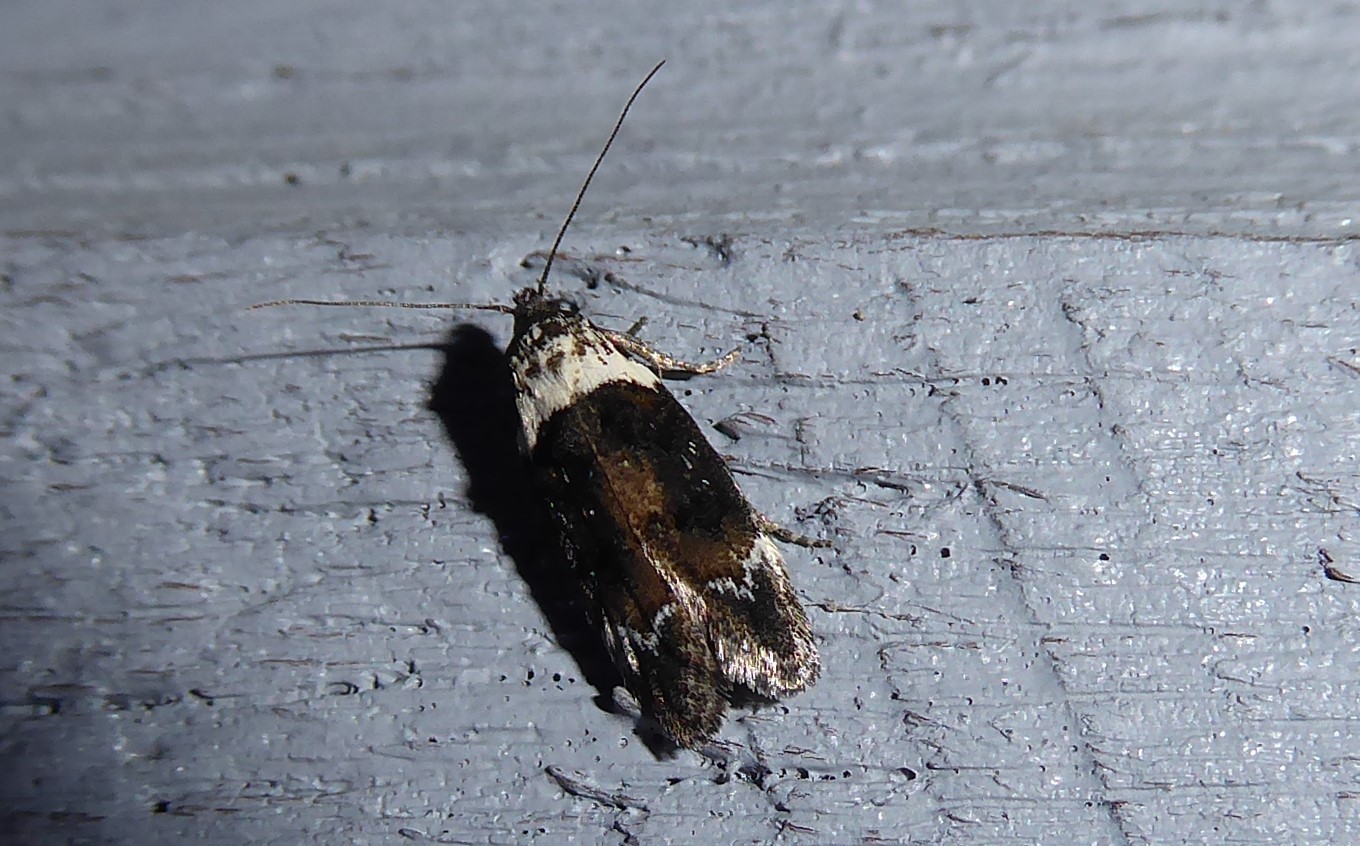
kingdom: Animalia
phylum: Arthropoda
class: Insecta
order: Lepidoptera
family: Oecophoridae
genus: Trachypepla
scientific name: Trachypepla conspicuella
